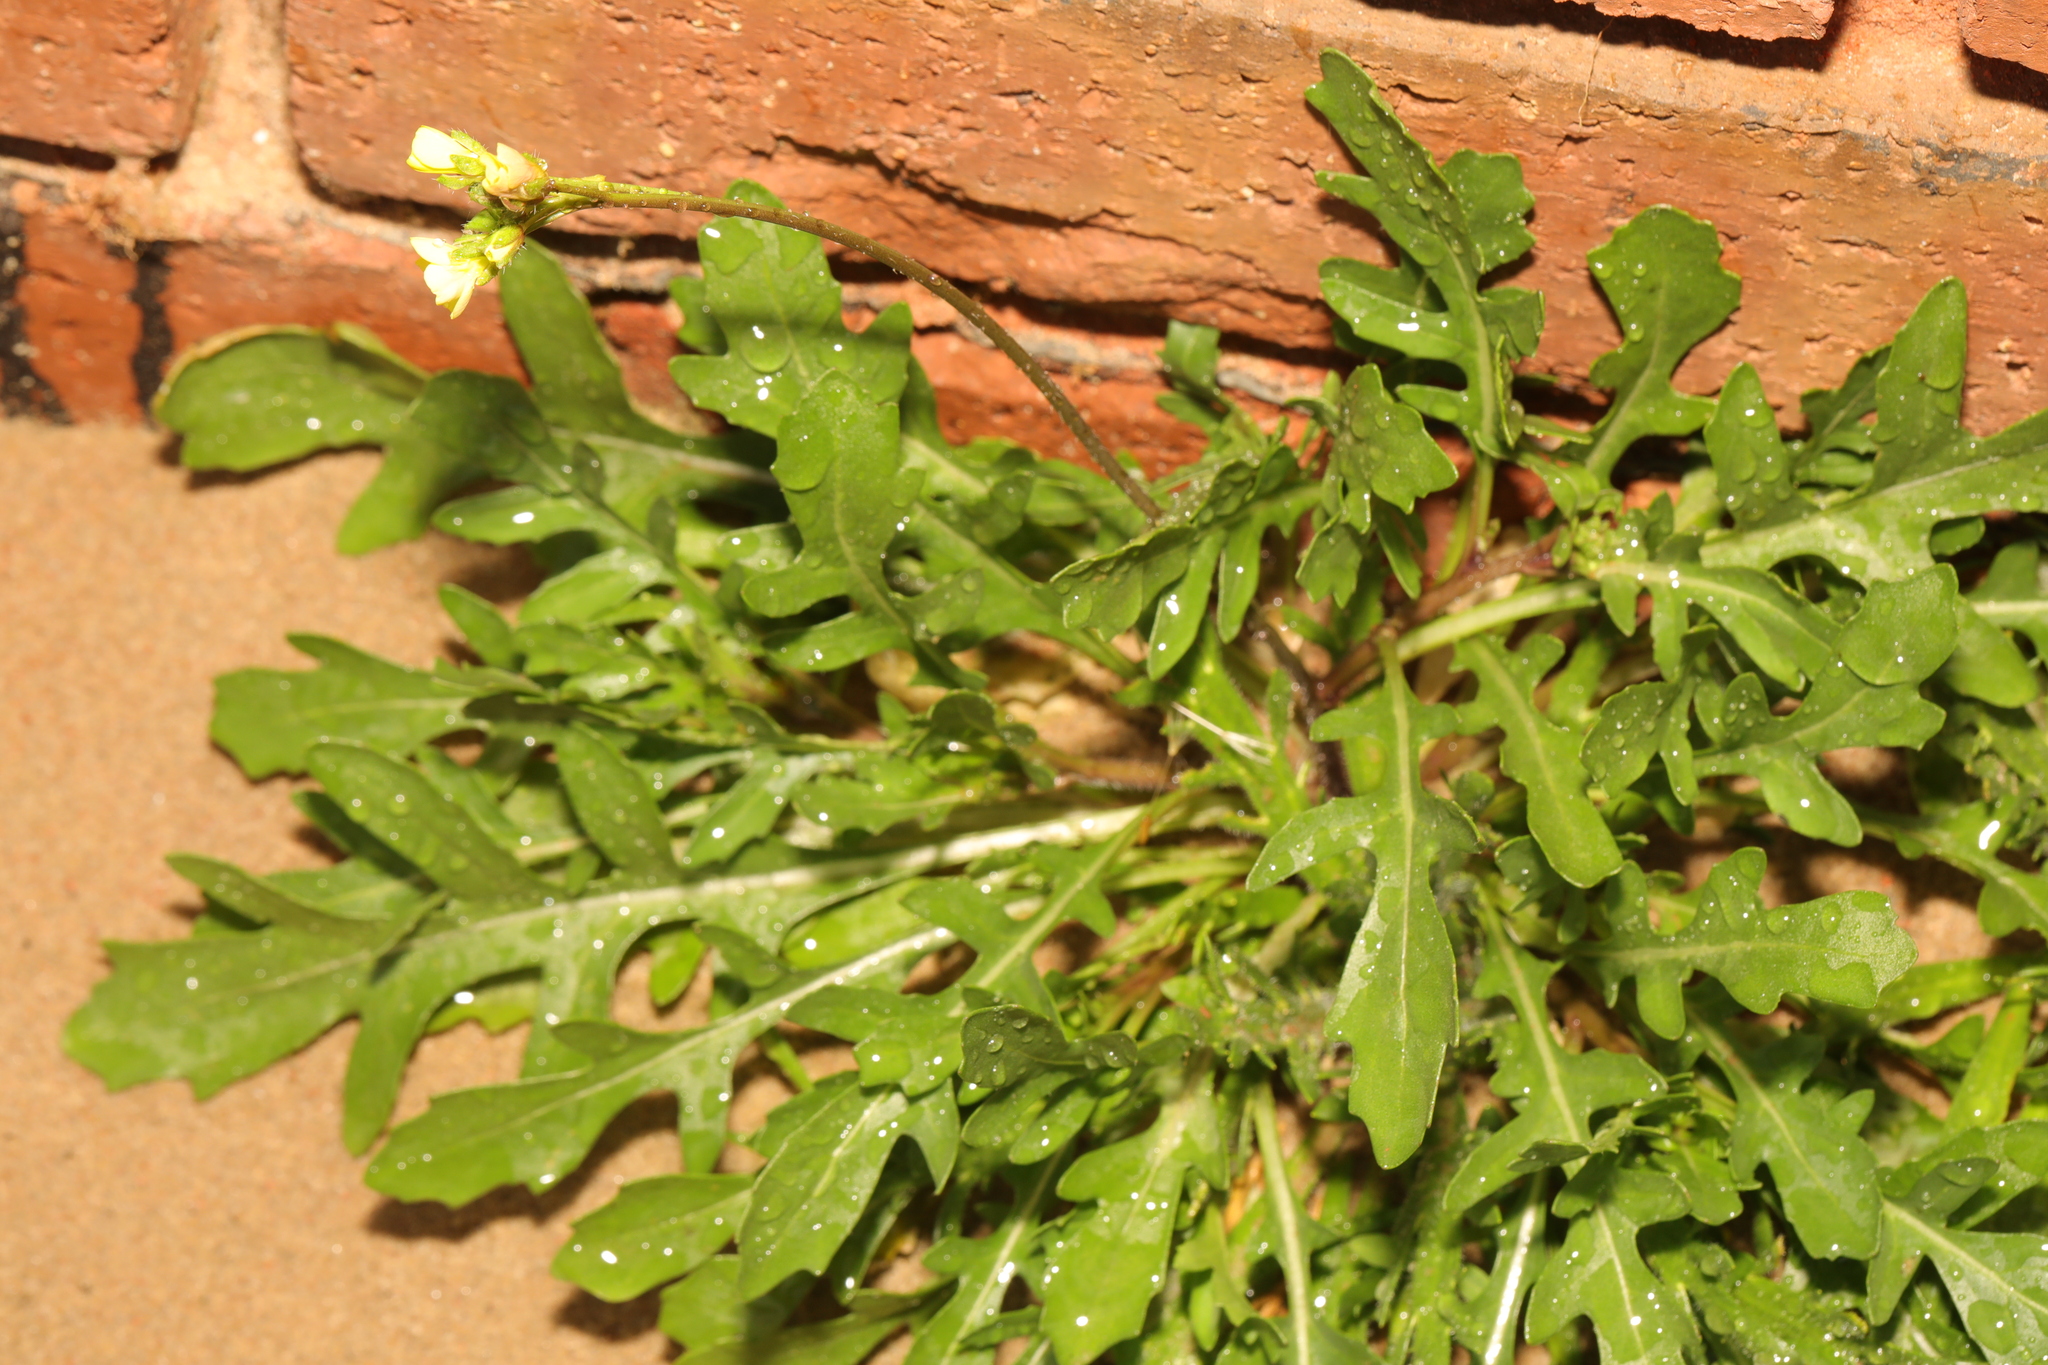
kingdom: Plantae
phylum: Tracheophyta
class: Magnoliopsida
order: Brassicales
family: Brassicaceae
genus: Diplotaxis
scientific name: Diplotaxis muralis
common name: Annual wall-rocket
